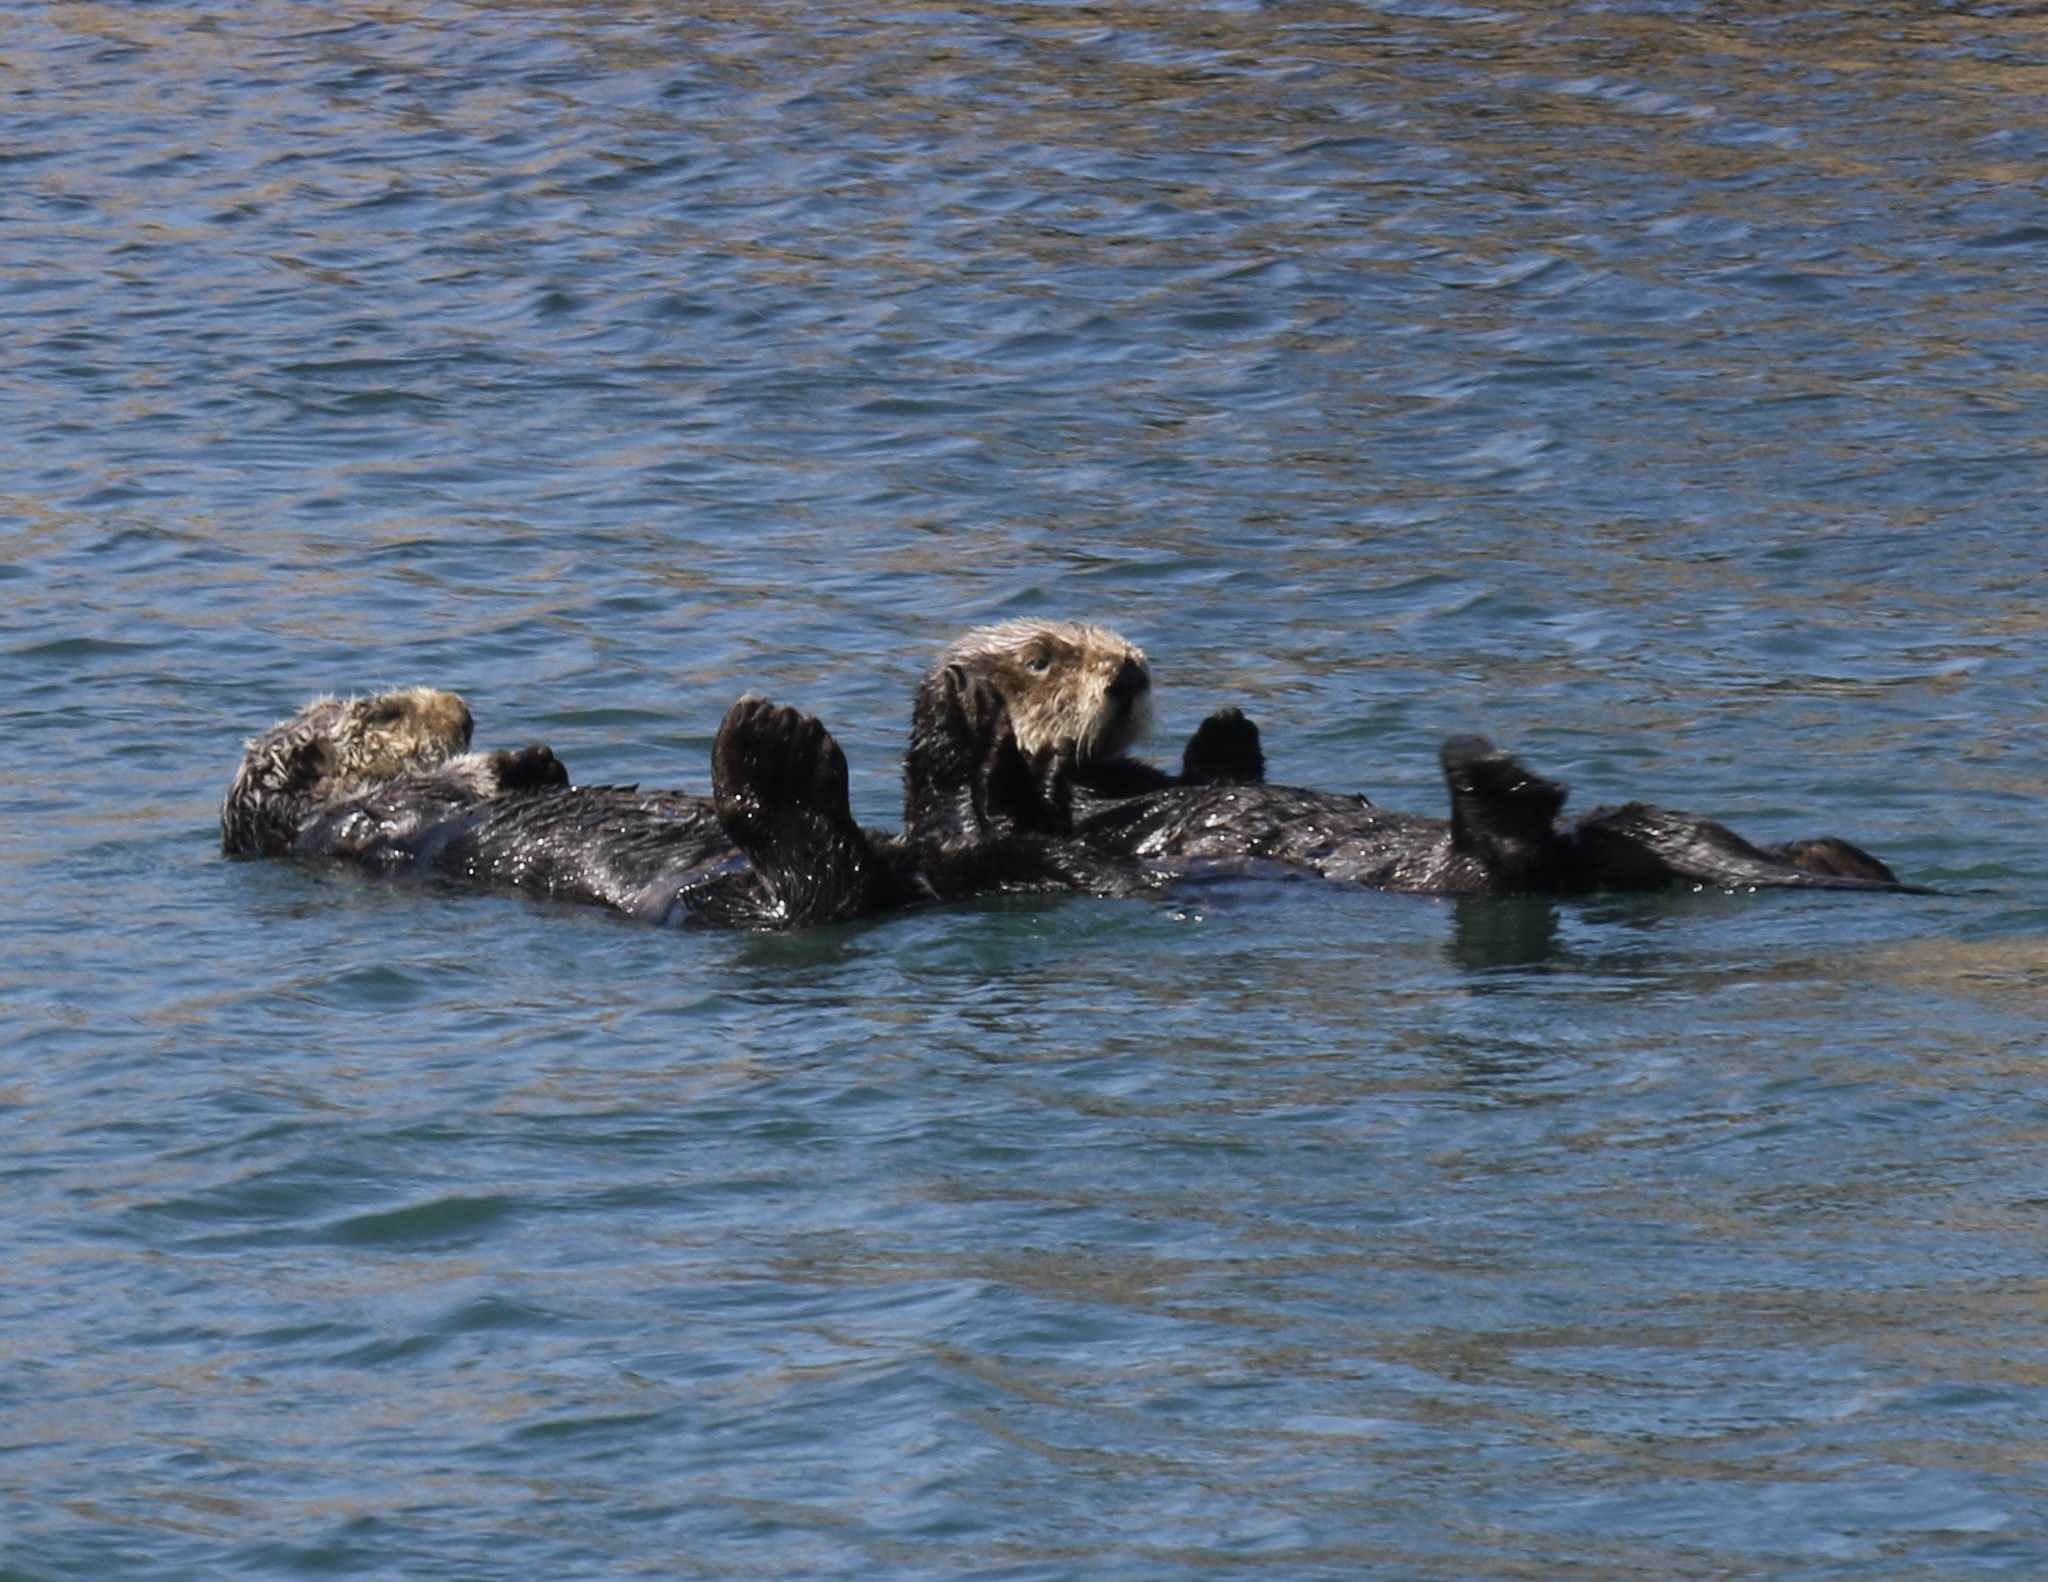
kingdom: Animalia
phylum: Chordata
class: Mammalia
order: Carnivora
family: Mustelidae
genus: Enhydra
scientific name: Enhydra lutris
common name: Sea otter
